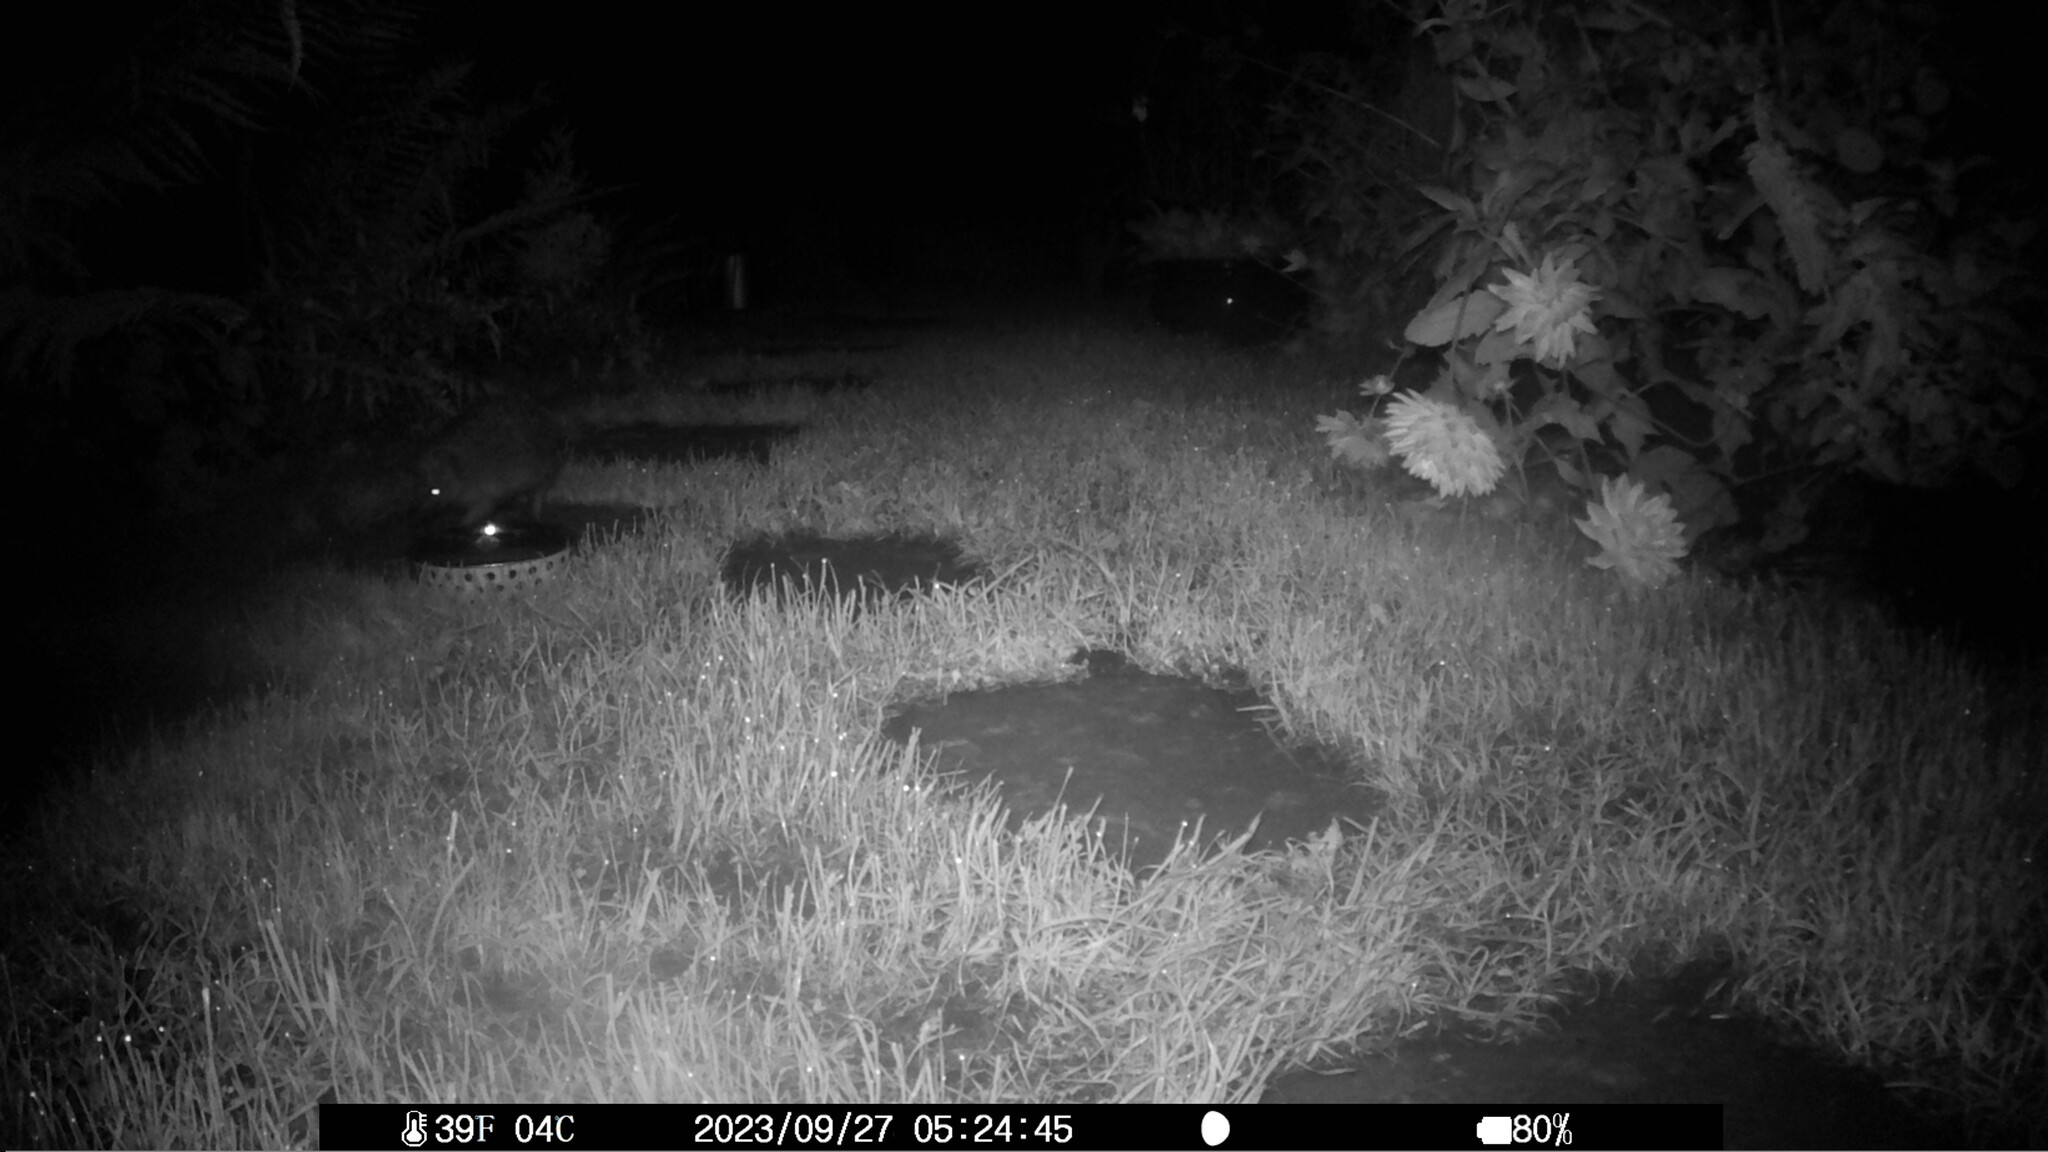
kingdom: Animalia
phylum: Chordata
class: Mammalia
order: Erinaceomorpha
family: Erinaceidae
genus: Erinaceus
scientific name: Erinaceus europaeus
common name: West european hedgehog
